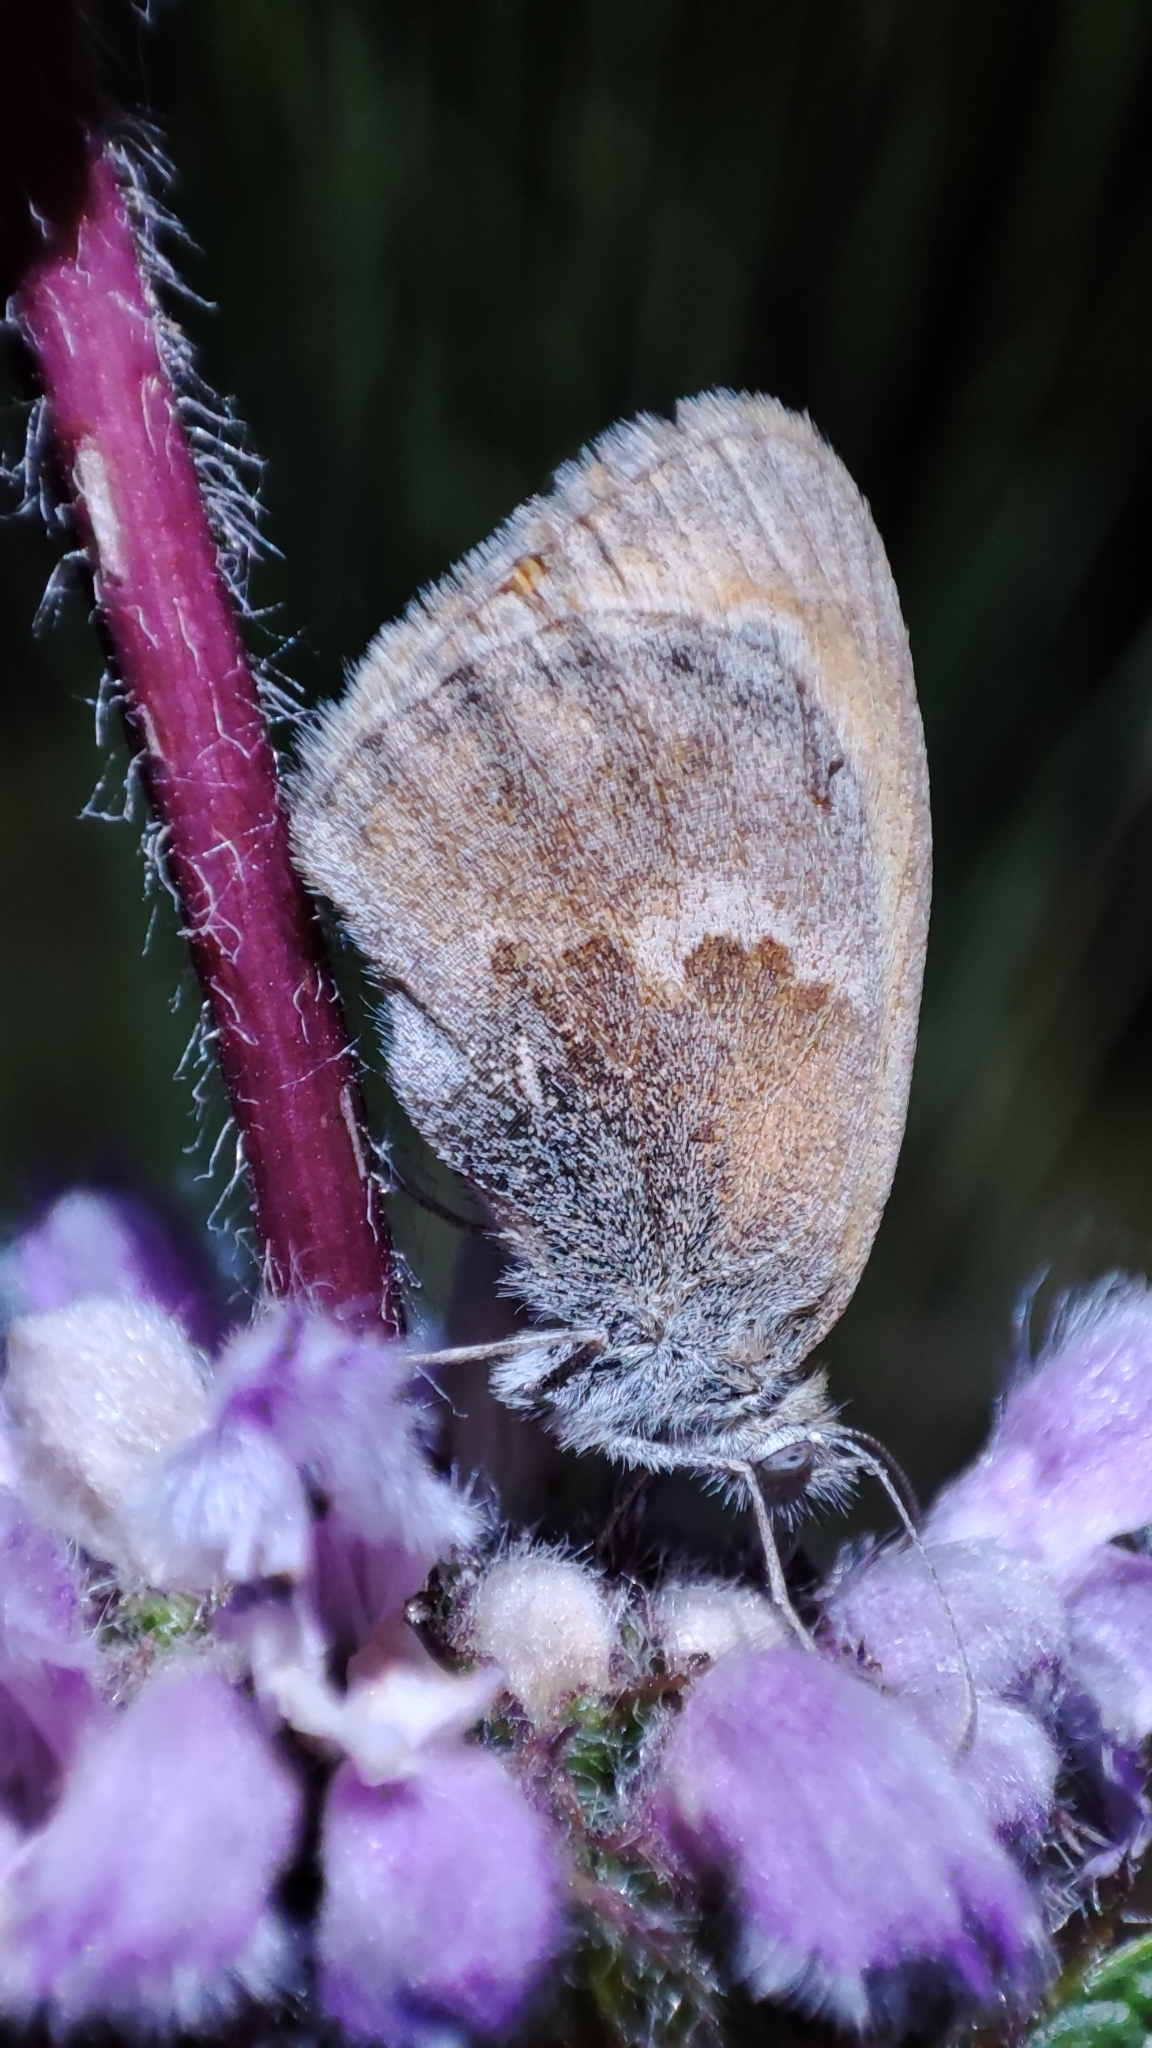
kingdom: Animalia
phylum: Arthropoda
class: Insecta
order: Lepidoptera
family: Nymphalidae
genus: Coenonympha
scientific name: Coenonympha pamphilus
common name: Small heath
